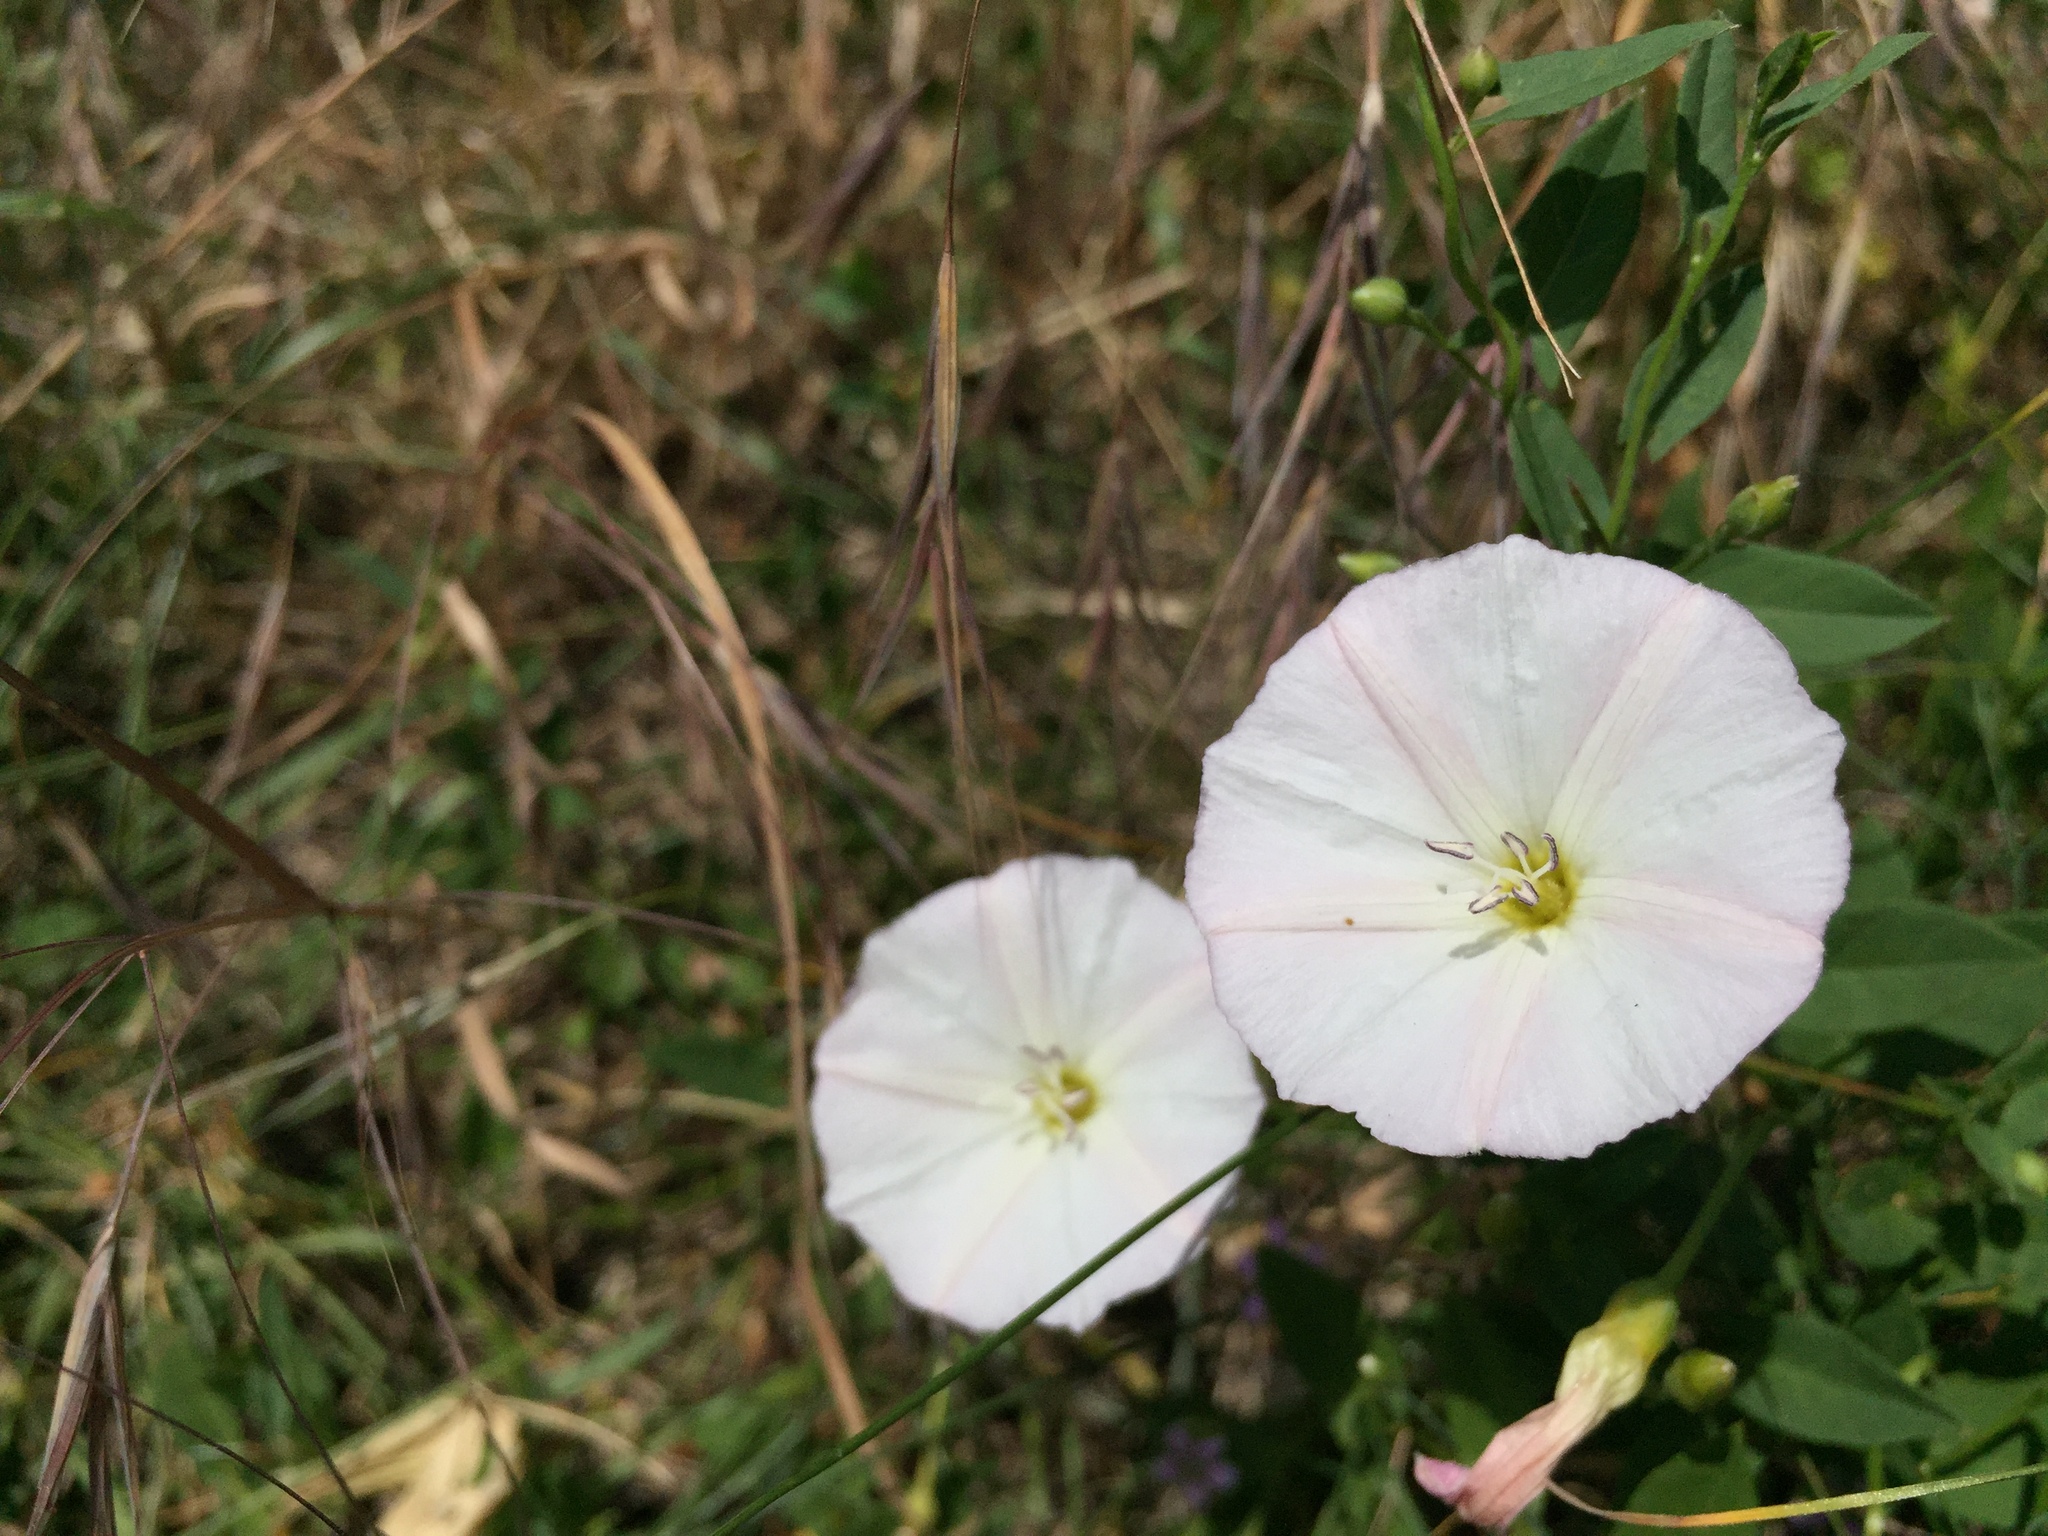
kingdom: Plantae
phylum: Tracheophyta
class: Magnoliopsida
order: Solanales
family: Convolvulaceae
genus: Convolvulus
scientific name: Convolvulus arvensis
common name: Field bindweed
